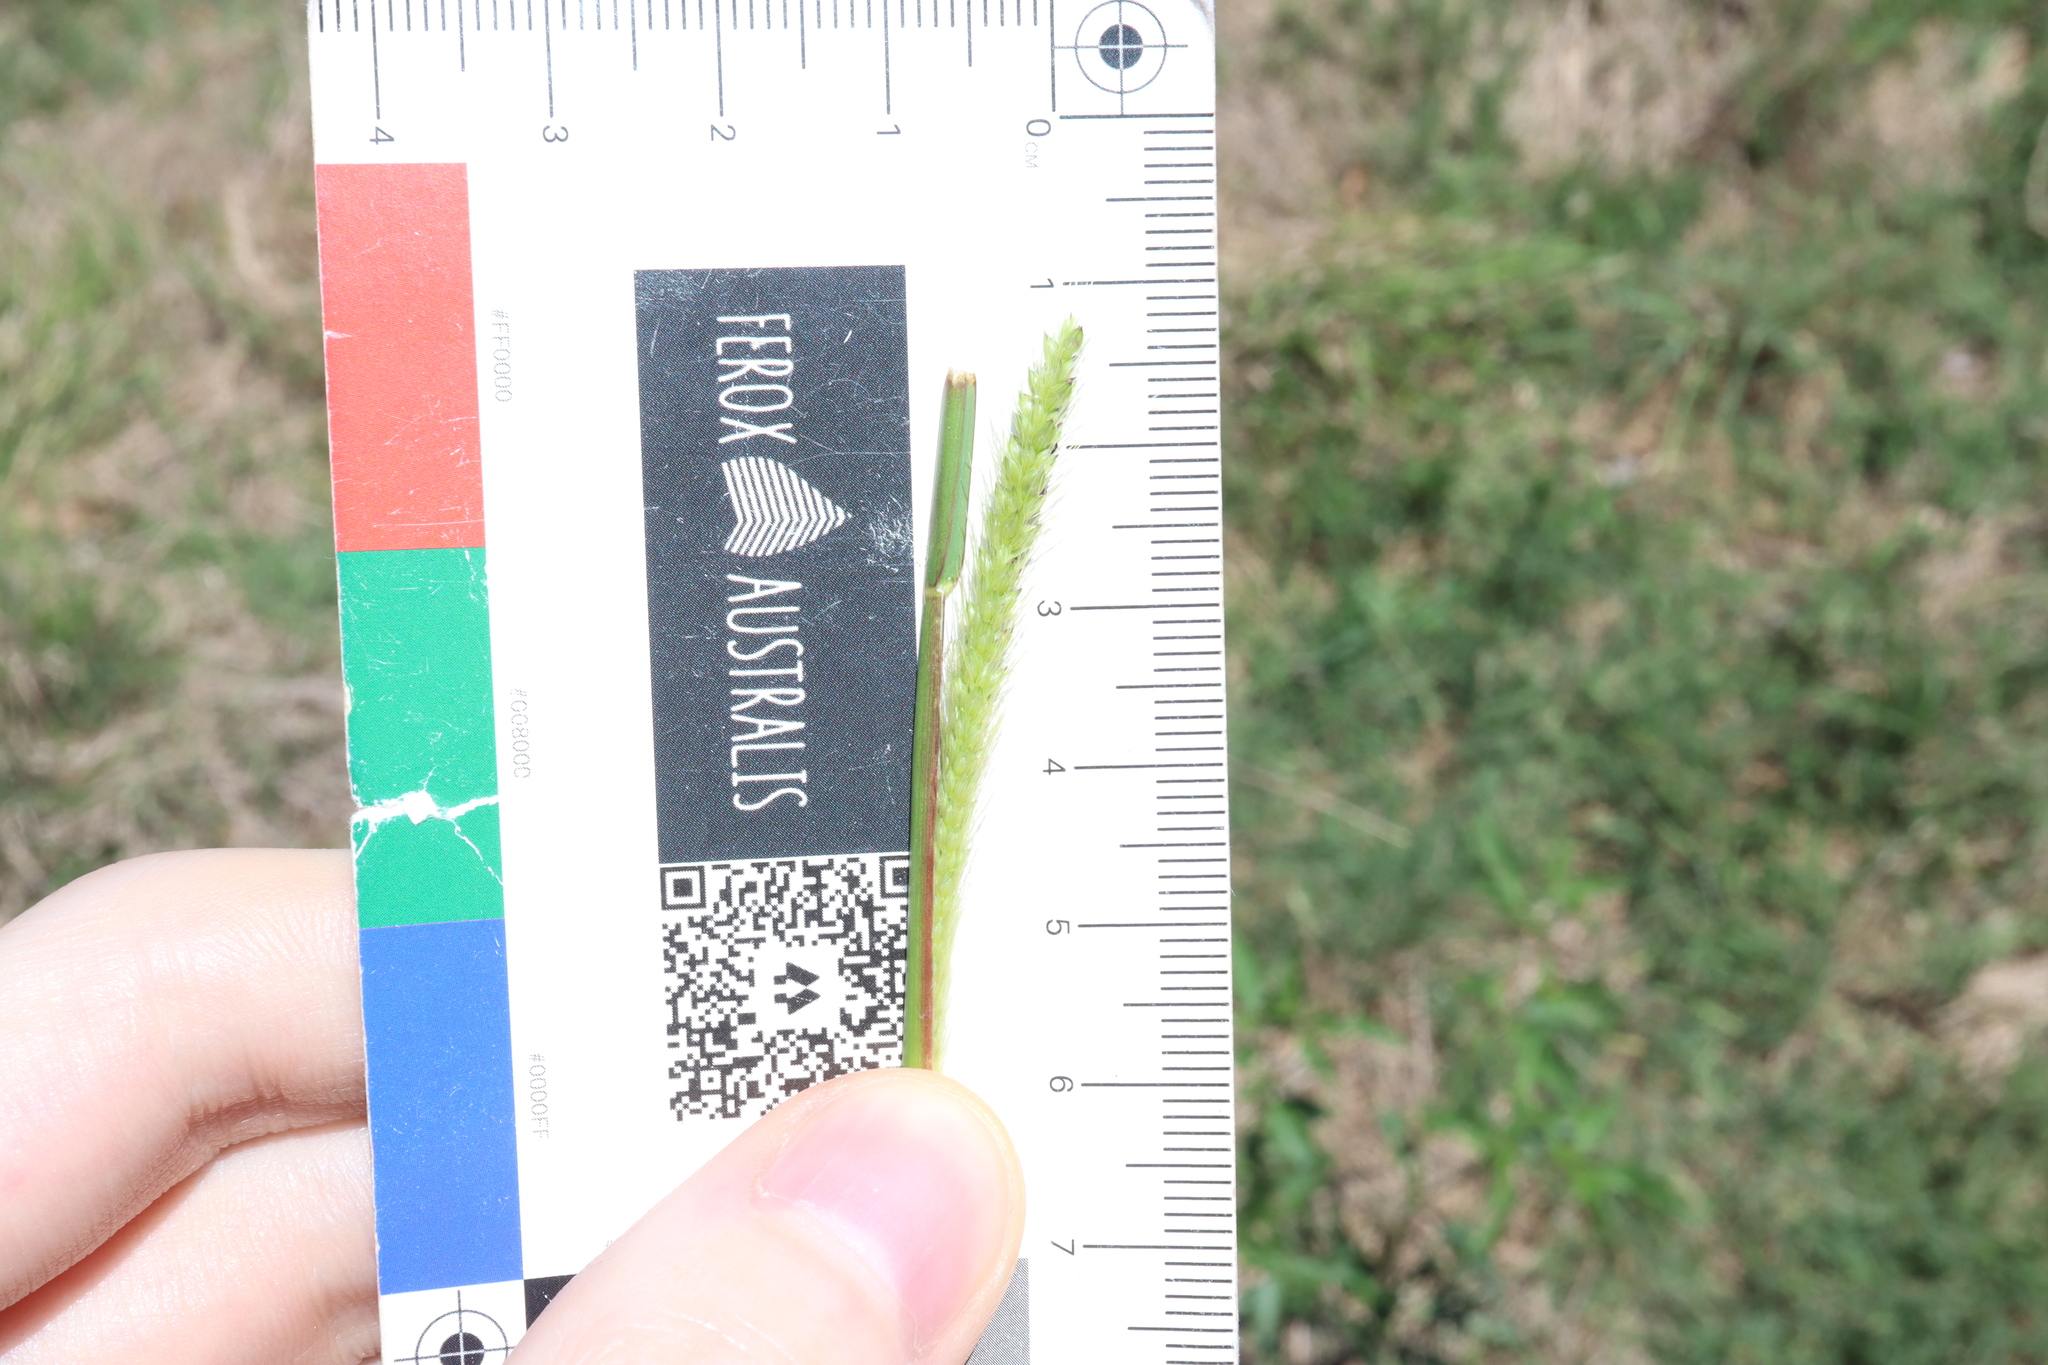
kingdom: Plantae
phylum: Tracheophyta
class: Liliopsida
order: Poales
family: Poaceae
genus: Setaria
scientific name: Setaria parviflora
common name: Knotroot bristle-grass
